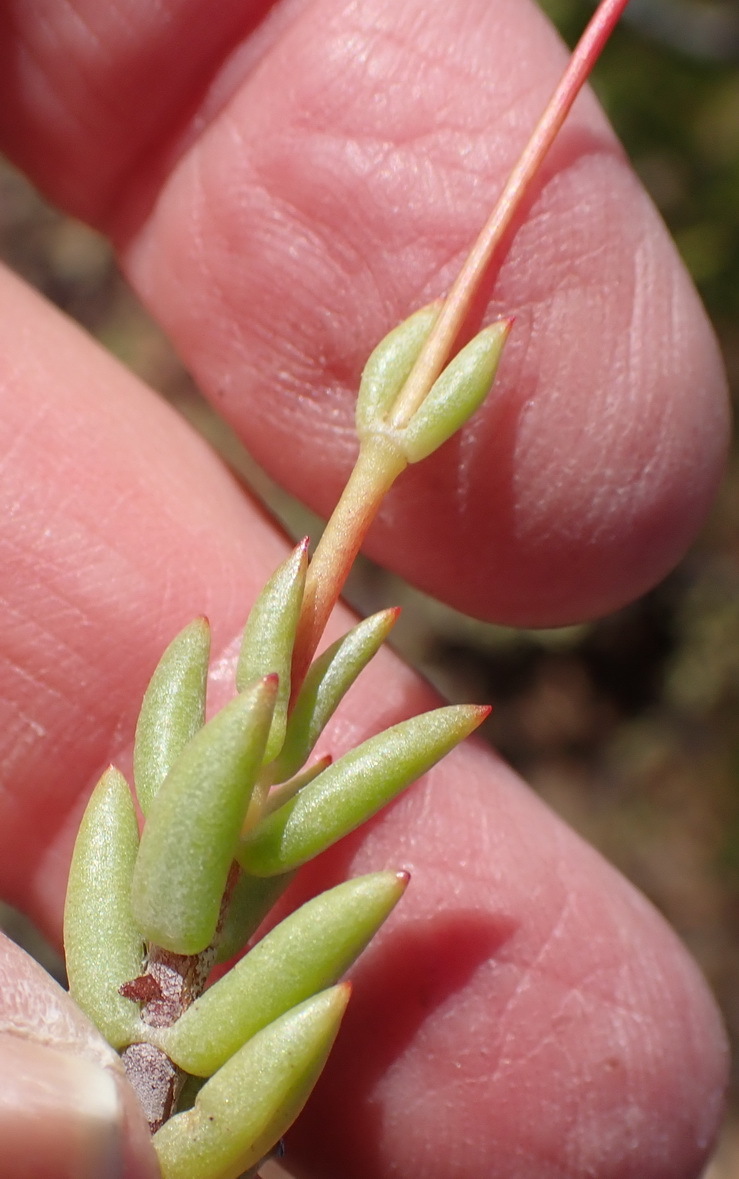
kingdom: Plantae
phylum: Tracheophyta
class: Magnoliopsida
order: Saxifragales
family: Crassulaceae
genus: Crassula
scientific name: Crassula biplanata
